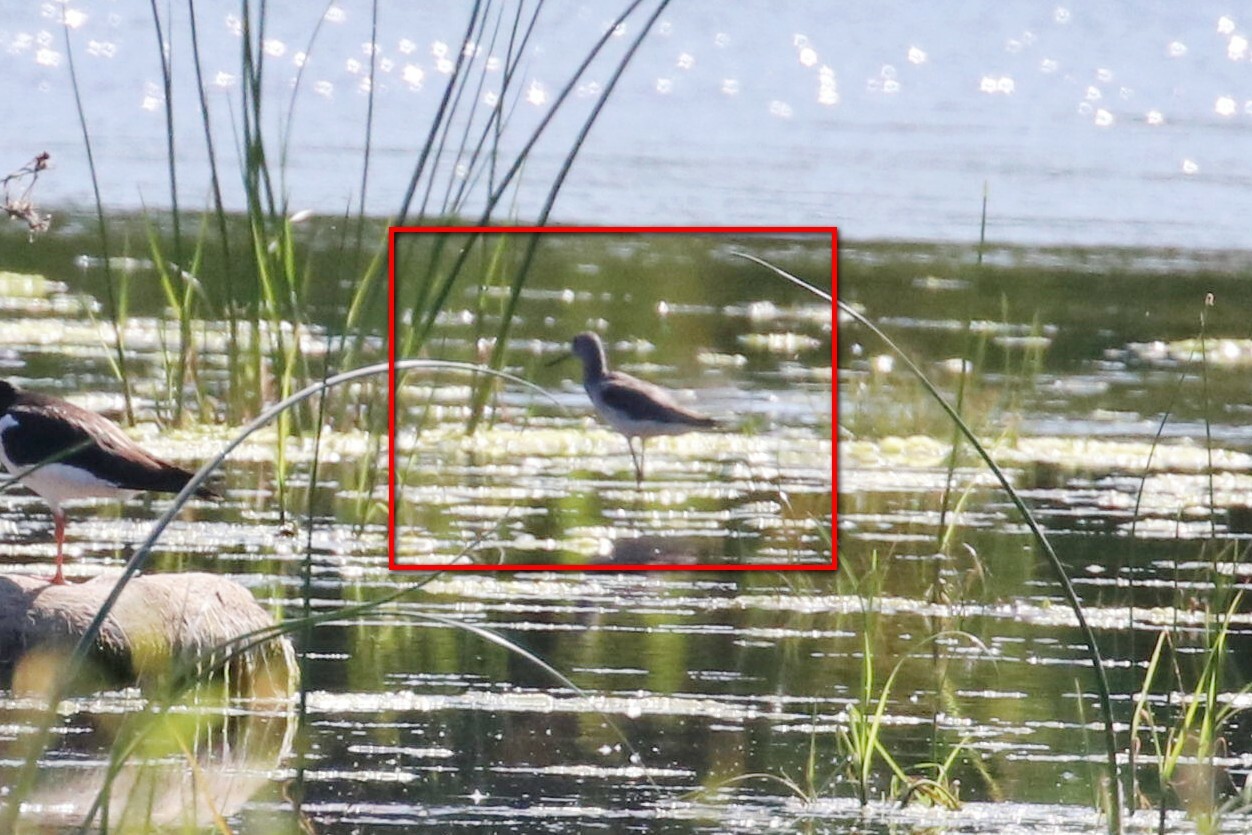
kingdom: Animalia
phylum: Chordata
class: Aves
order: Charadriiformes
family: Scolopacidae
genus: Tringa
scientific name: Tringa nebularia
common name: Common greenshank
